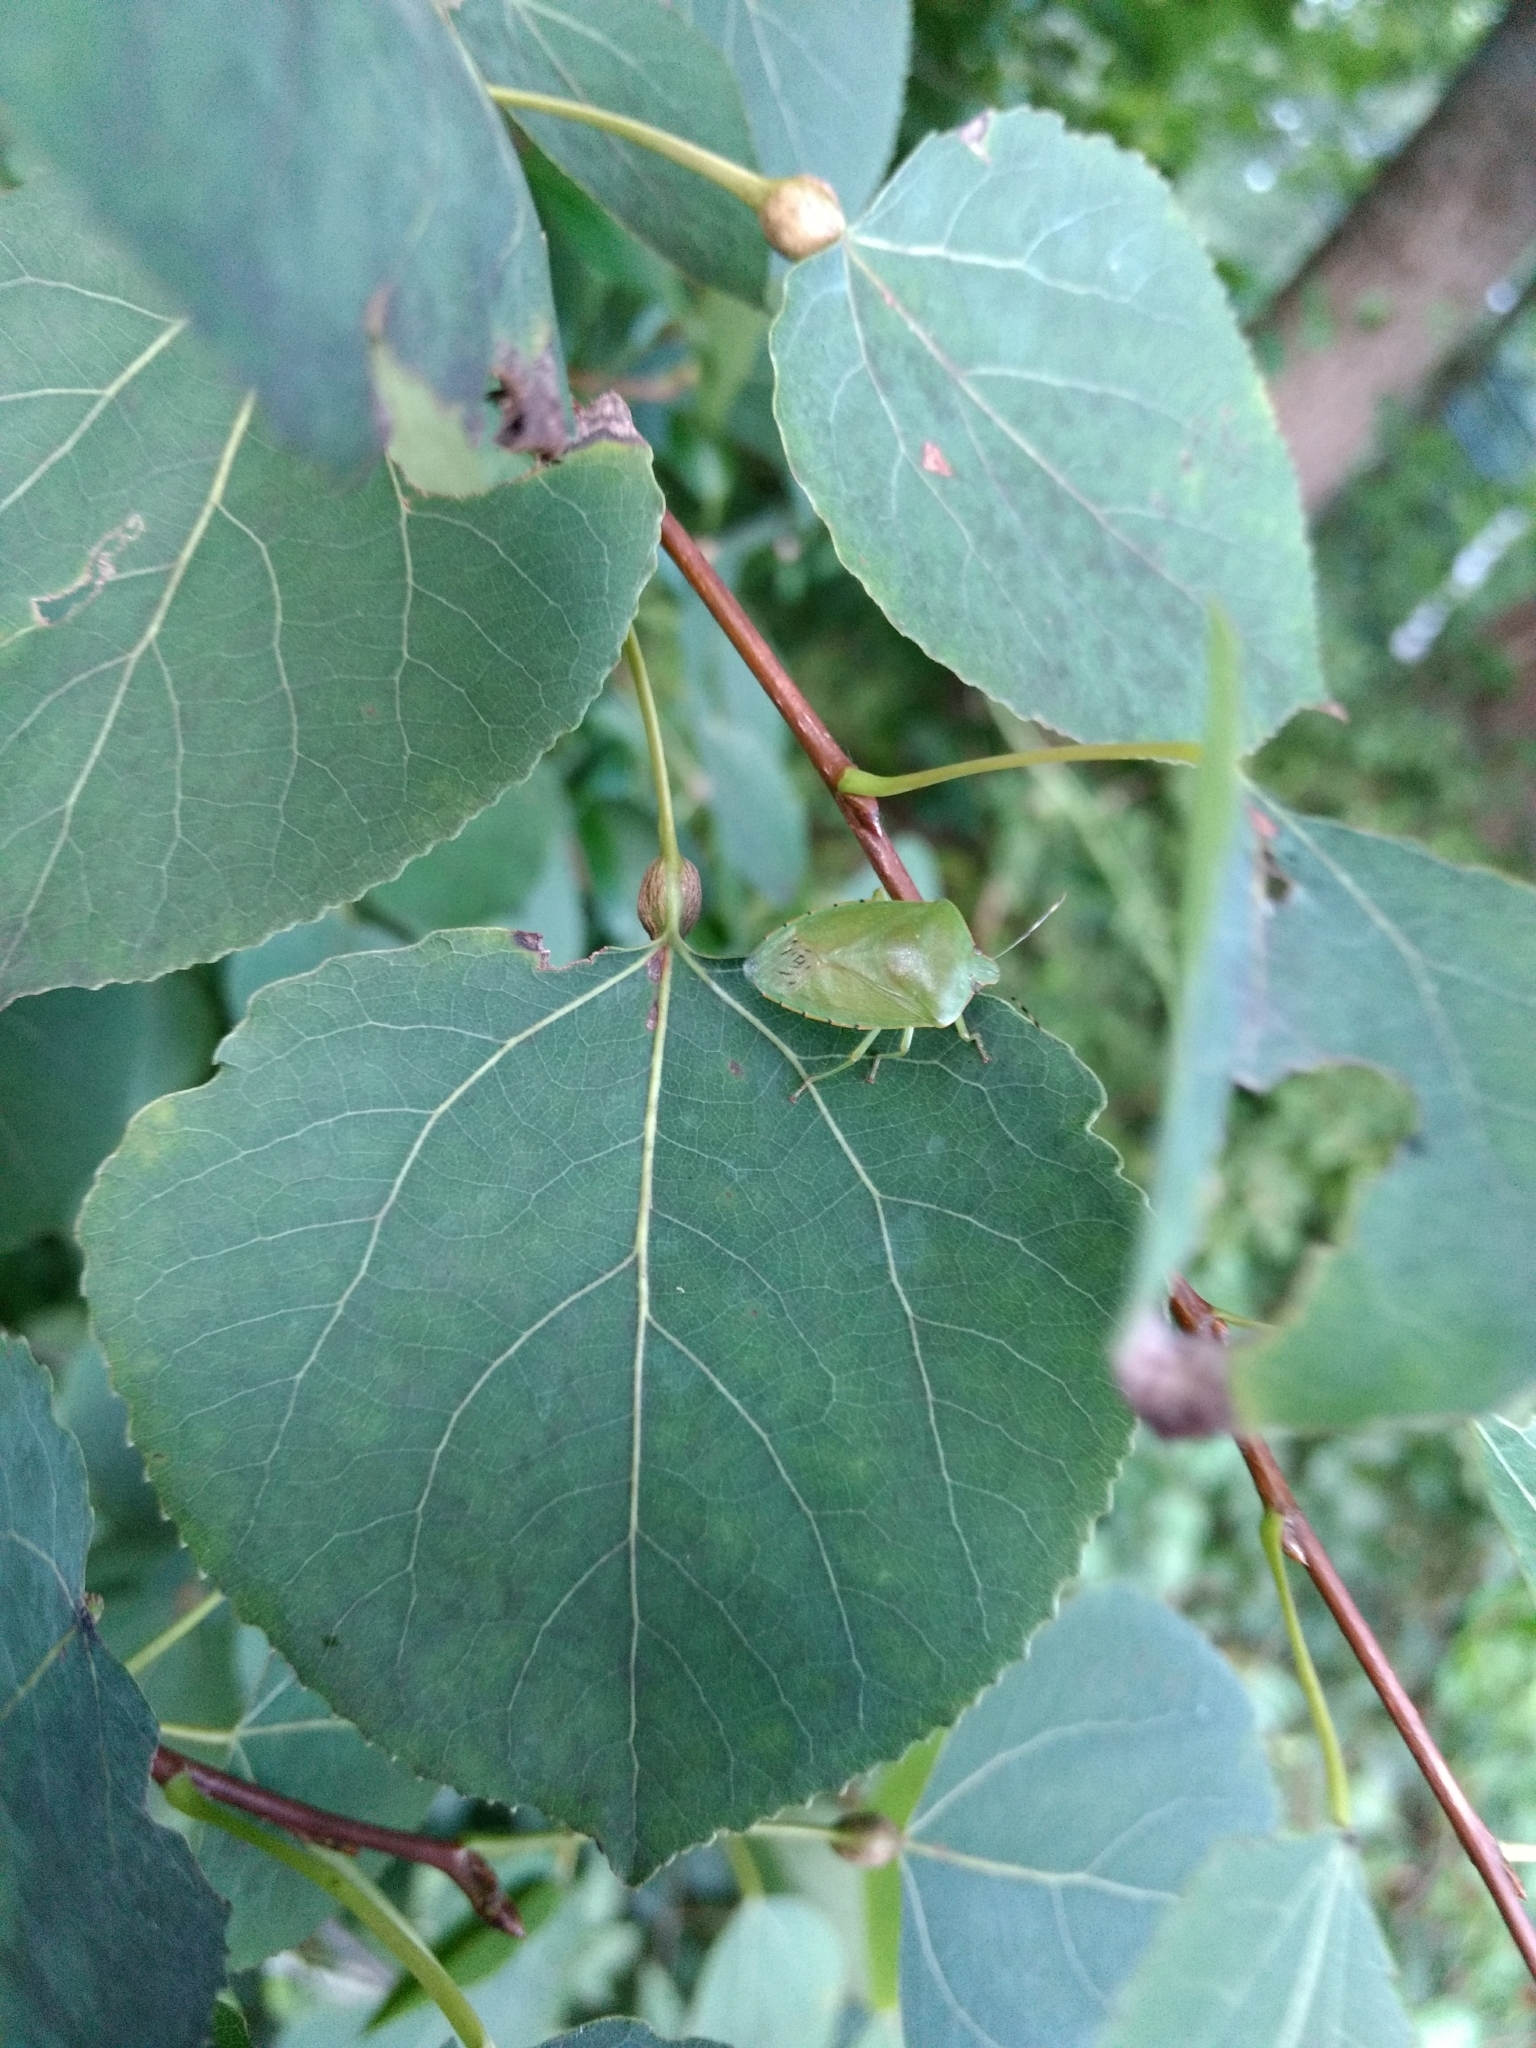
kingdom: Animalia
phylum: Arthropoda
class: Insecta
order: Hemiptera
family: Pentatomidae
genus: Chinavia
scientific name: Chinavia hilaris
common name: Green stink bug
